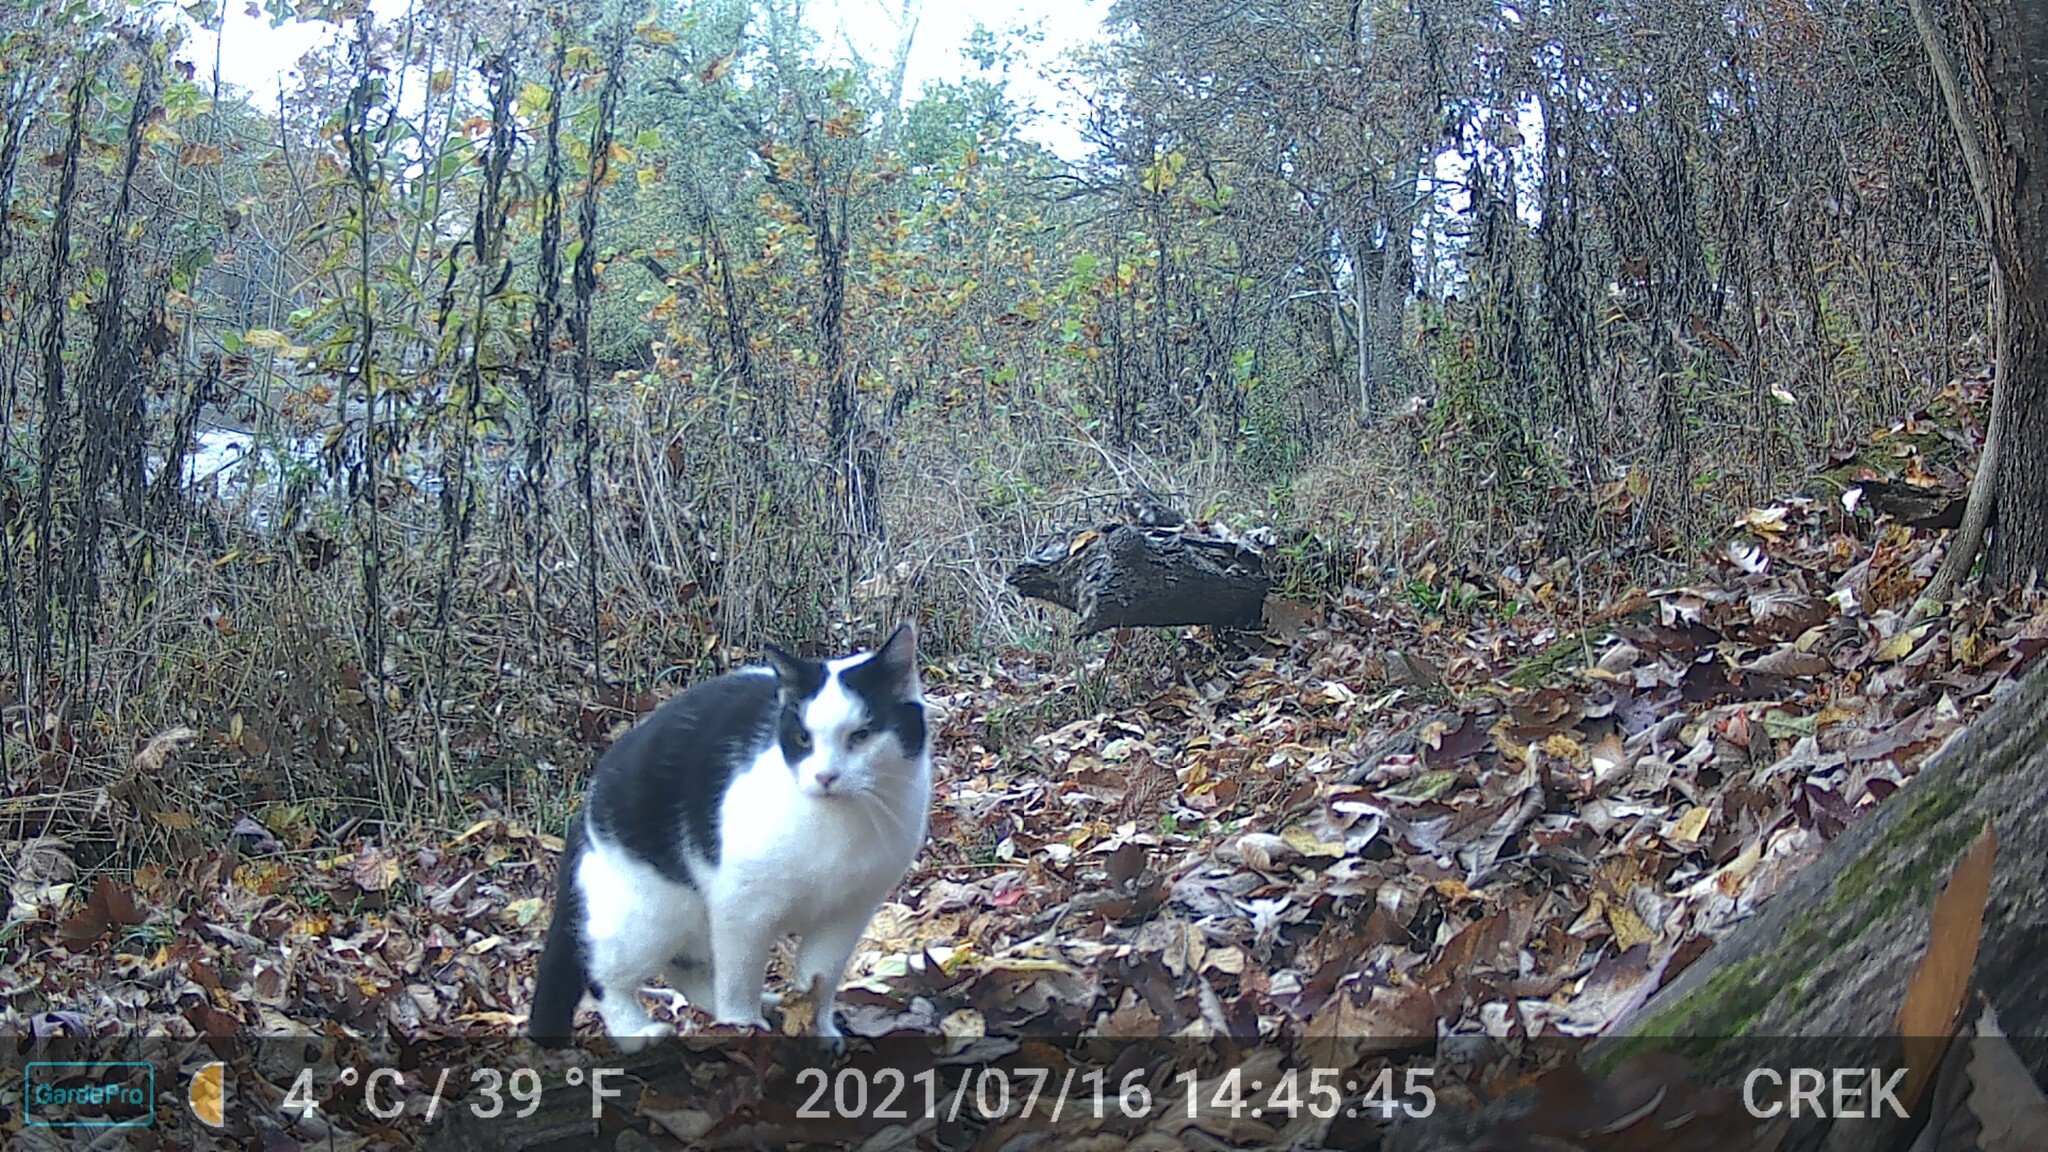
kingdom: Animalia
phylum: Chordata
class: Mammalia
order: Carnivora
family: Felidae
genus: Felis
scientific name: Felis catus
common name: Domestic cat
